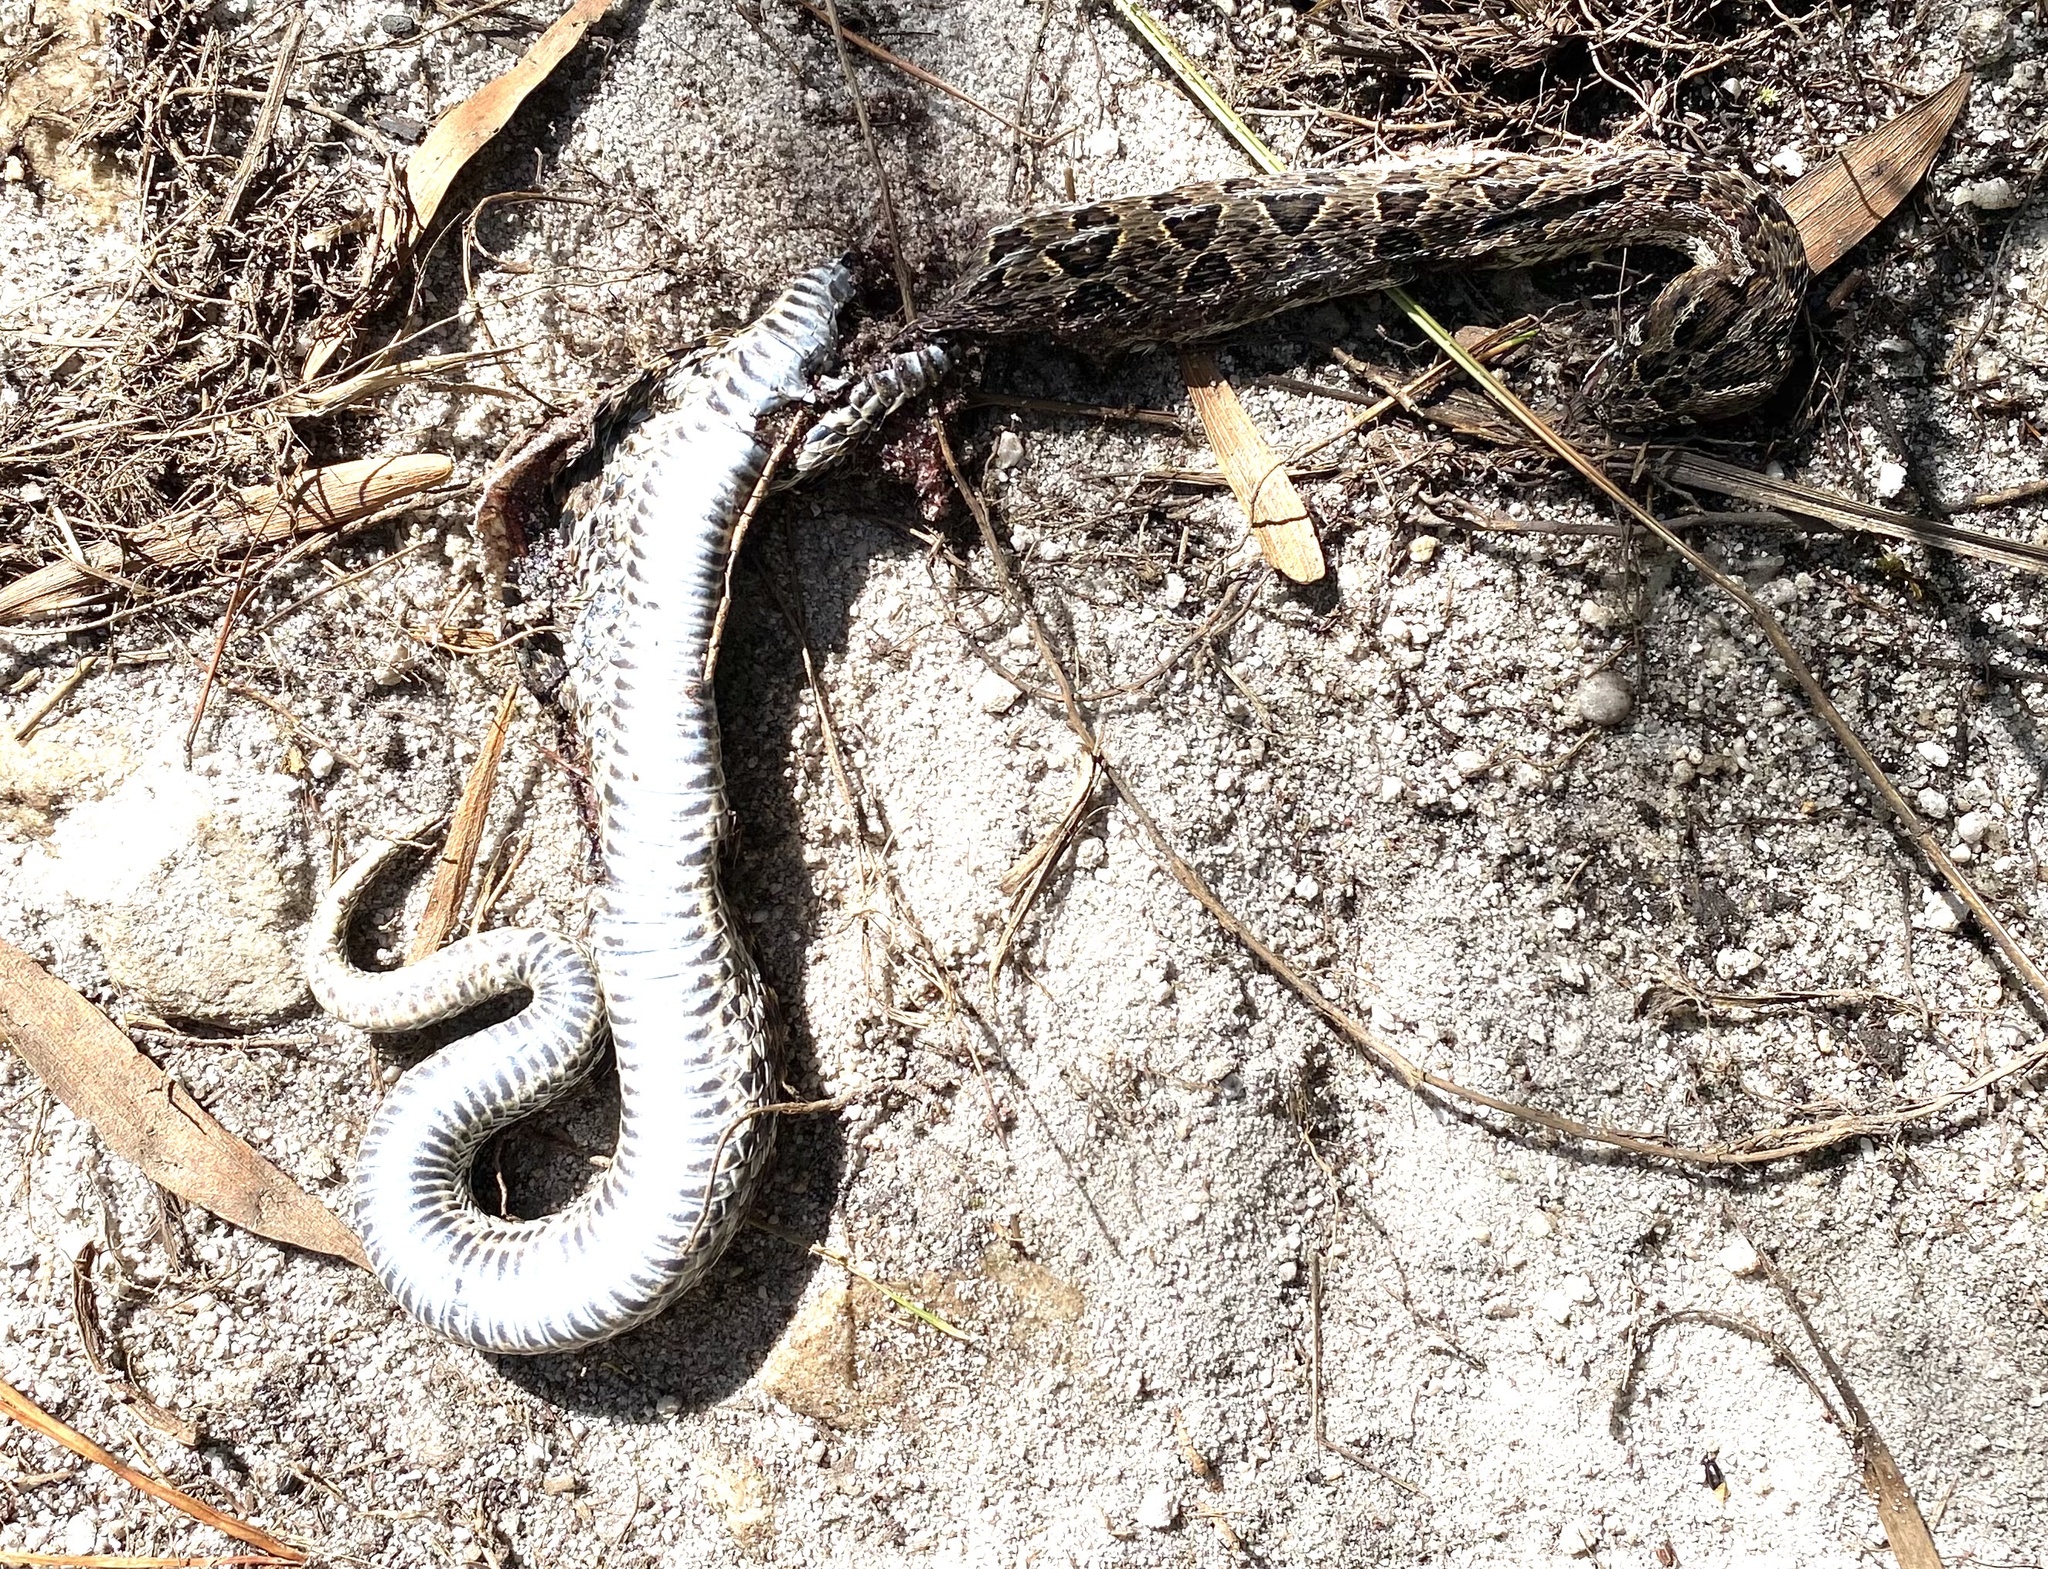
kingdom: Animalia
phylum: Chordata
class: Squamata
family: Viperidae
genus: Bitis
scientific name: Bitis atropos
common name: Mountain adder
